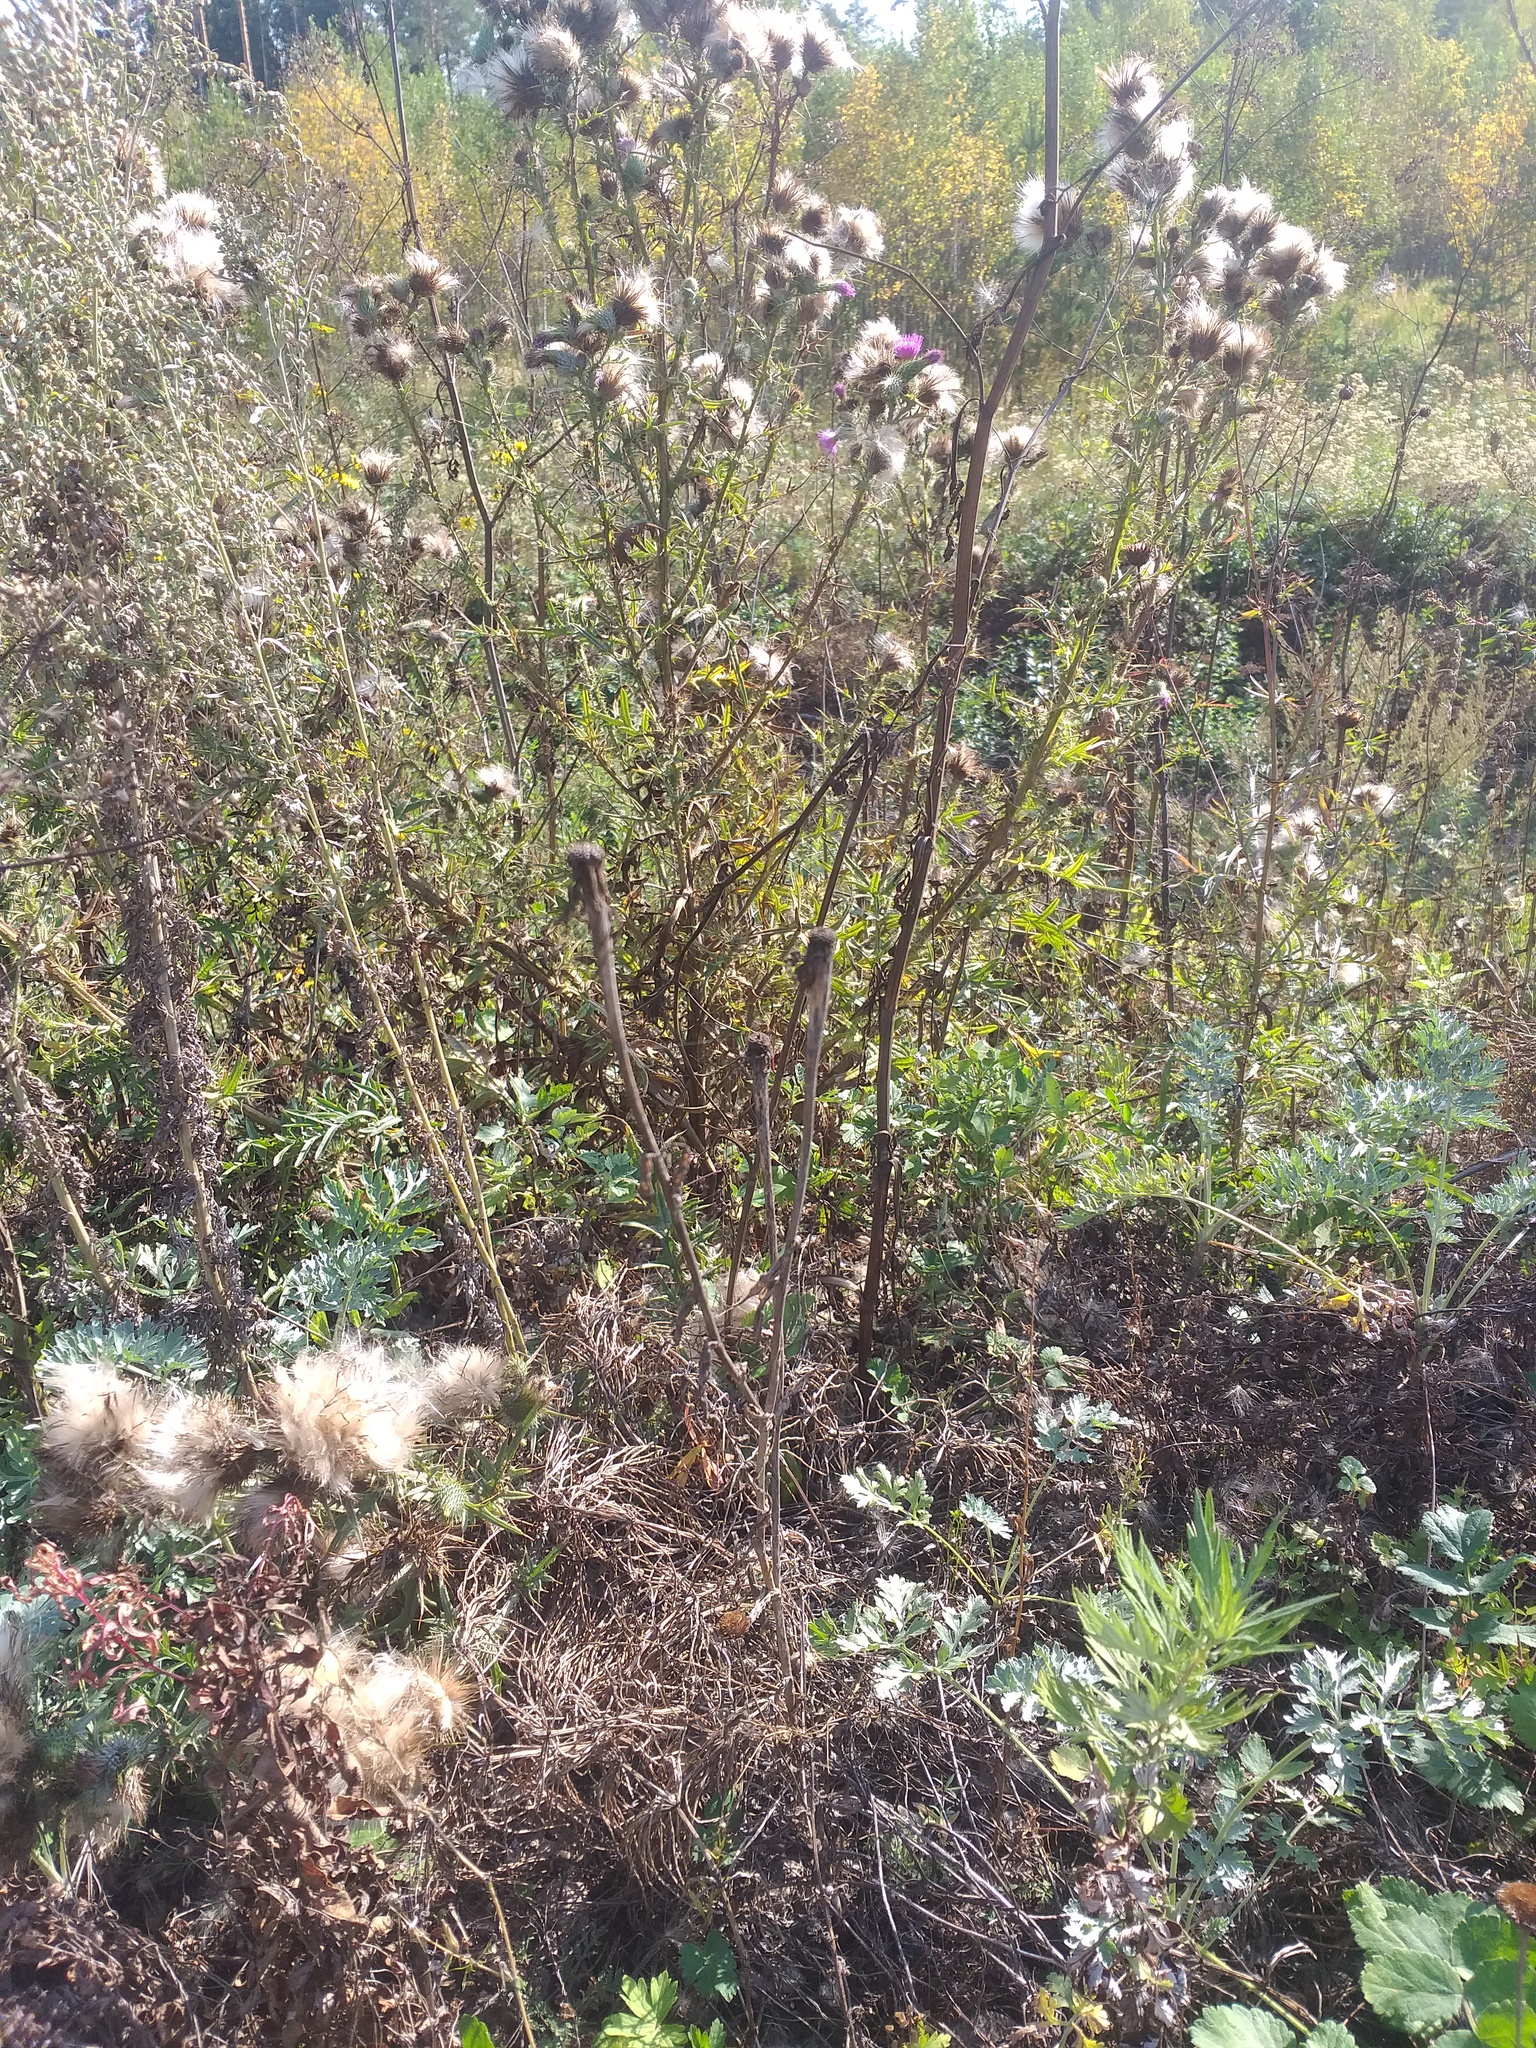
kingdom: Plantae
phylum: Tracheophyta
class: Magnoliopsida
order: Asterales
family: Asteraceae
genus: Tragopogon
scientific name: Tragopogon dubius
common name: Yellow salsify
